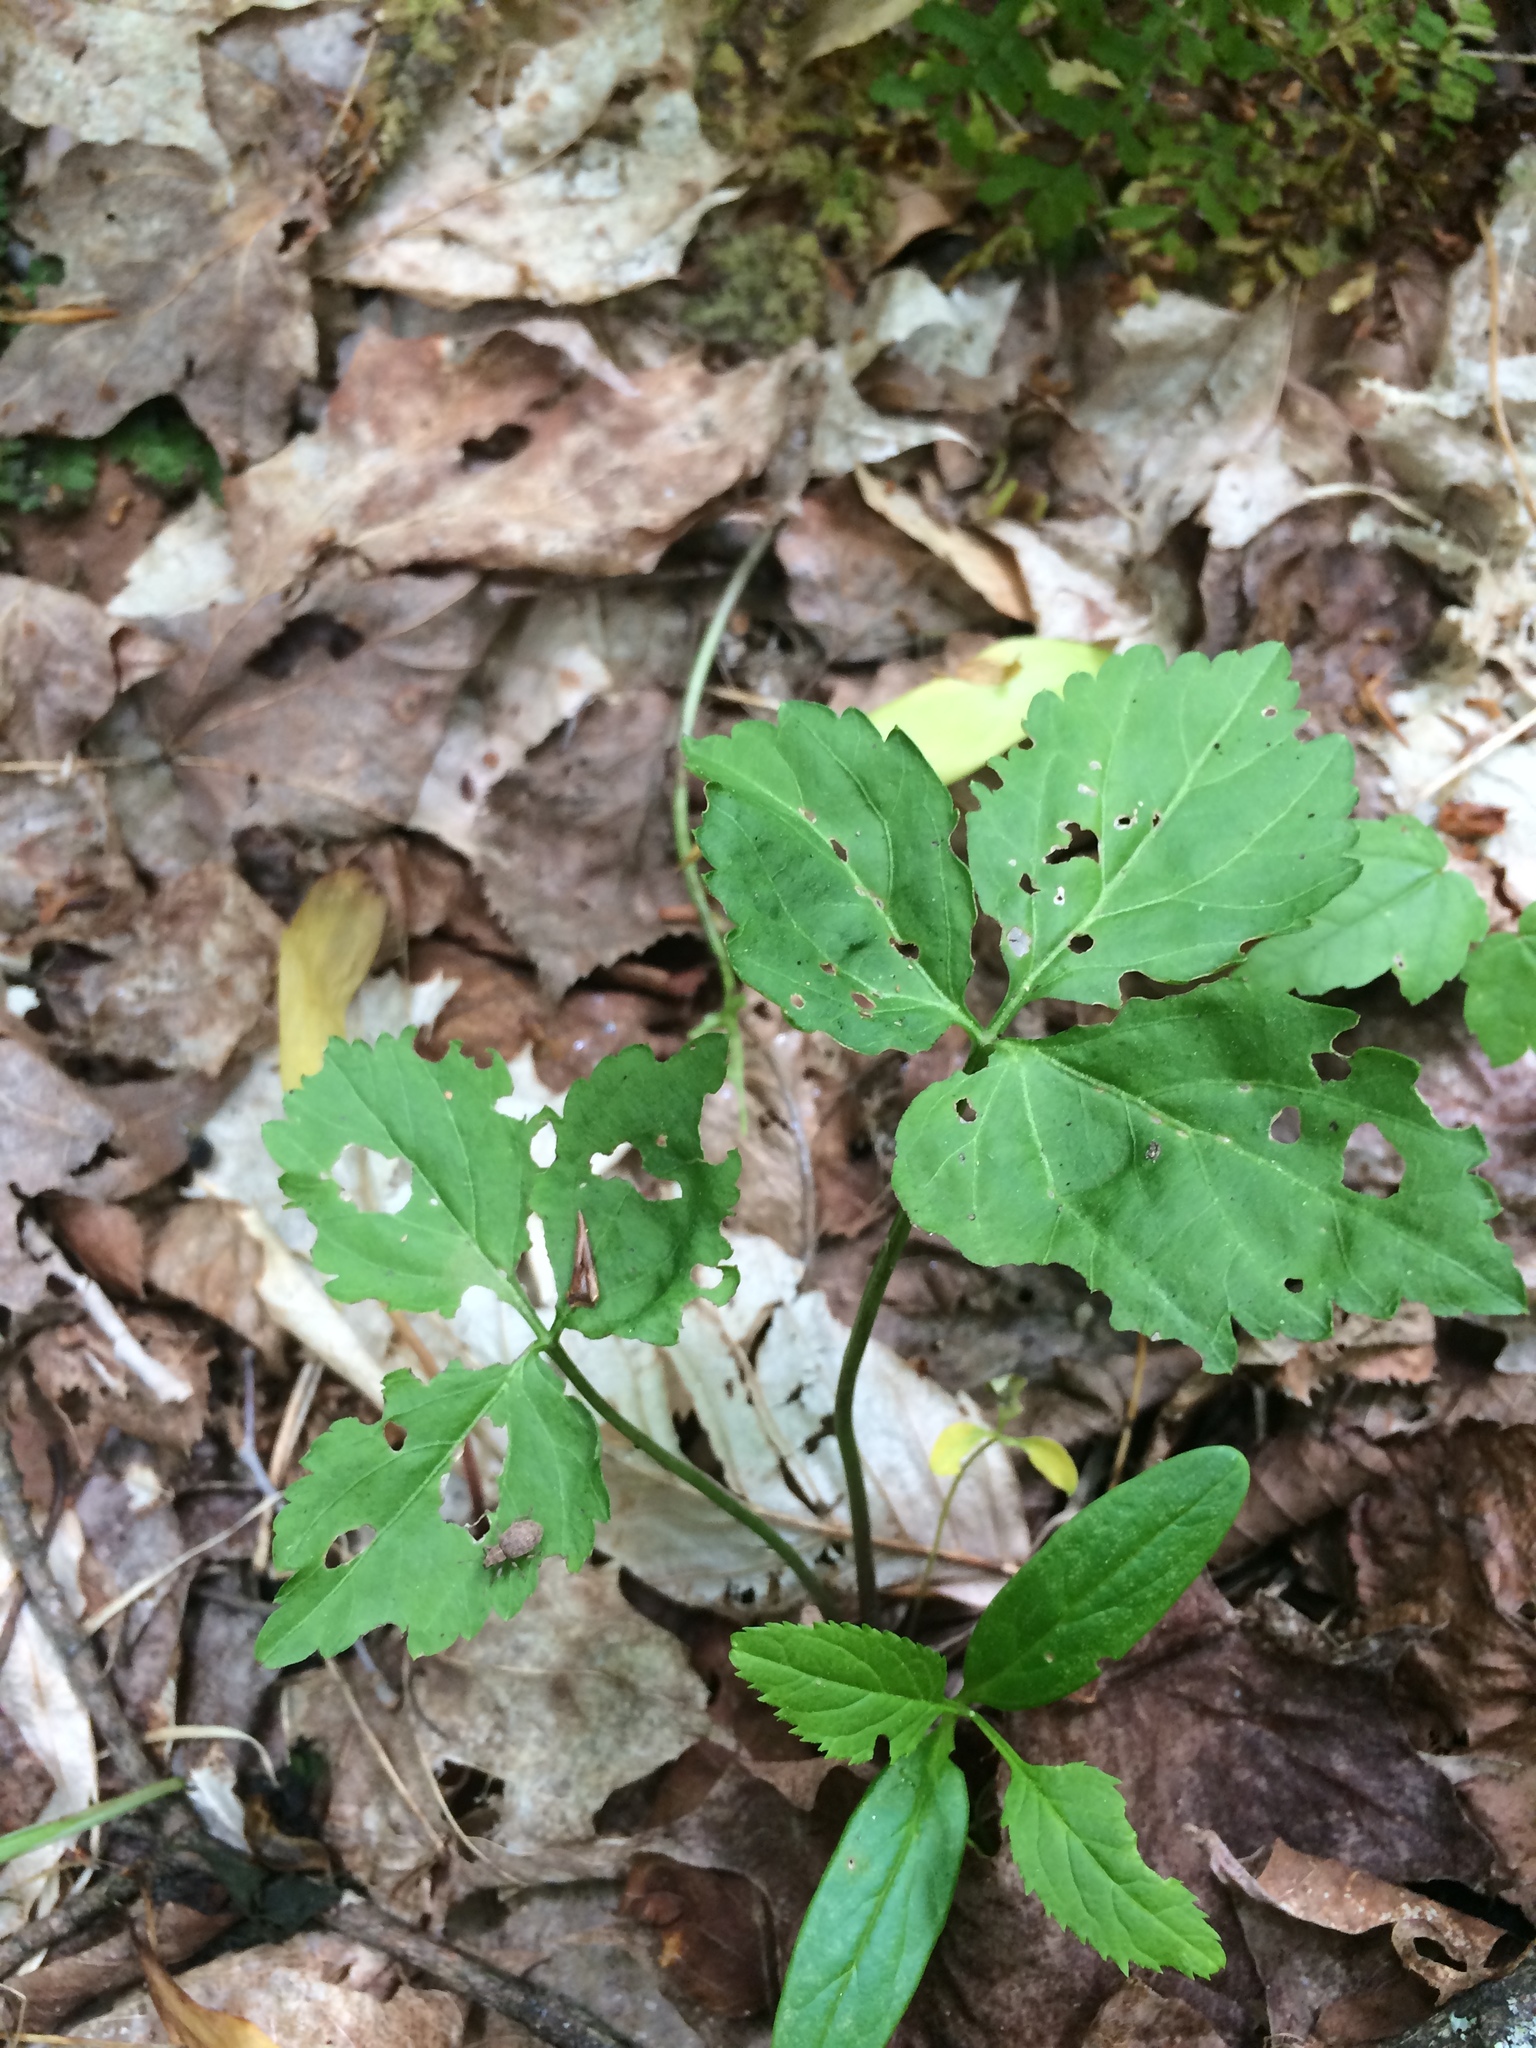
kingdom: Plantae
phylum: Tracheophyta
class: Magnoliopsida
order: Brassicales
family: Brassicaceae
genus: Cardamine
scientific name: Cardamine diphylla
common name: Broad-leaved toothwort
